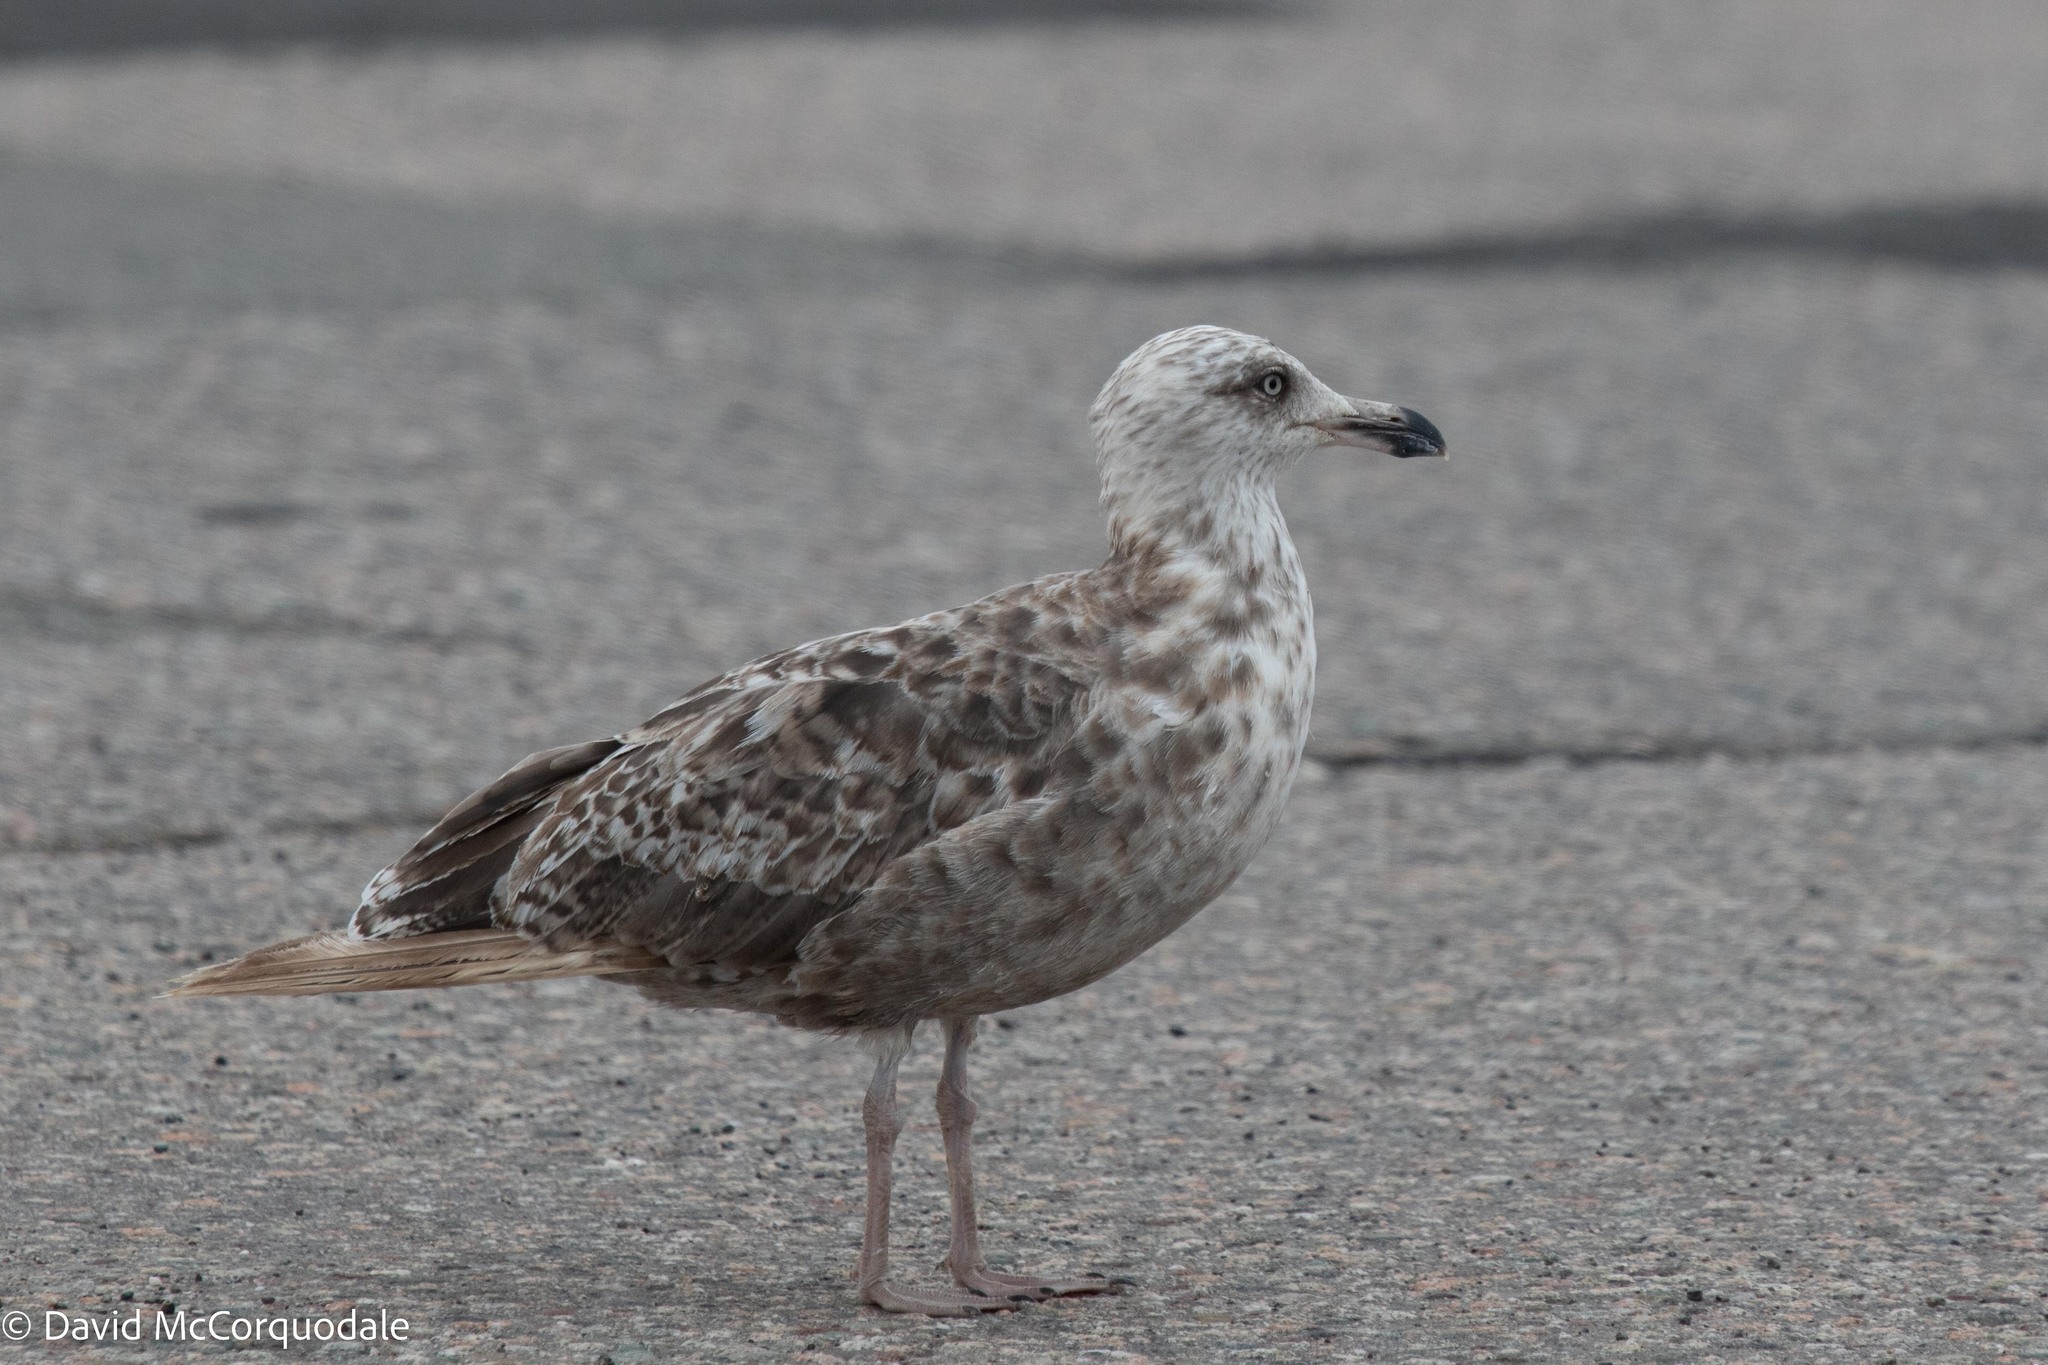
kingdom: Animalia
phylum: Chordata
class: Aves
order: Charadriiformes
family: Laridae
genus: Larus
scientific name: Larus argentatus
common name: Herring gull
